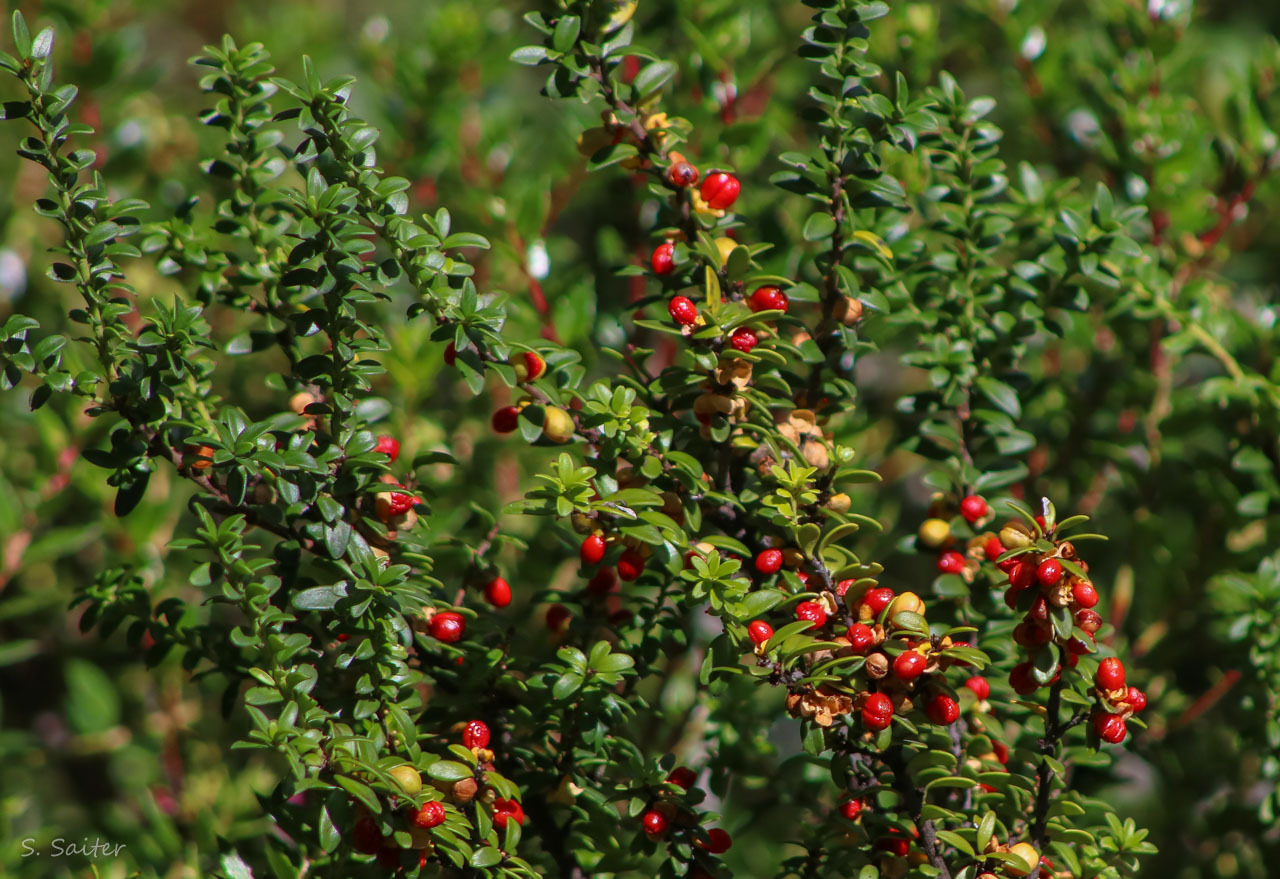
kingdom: Plantae
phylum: Tracheophyta
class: Magnoliopsida
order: Celastrales
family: Celastraceae
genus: Maytenus
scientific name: Maytenus disticha
